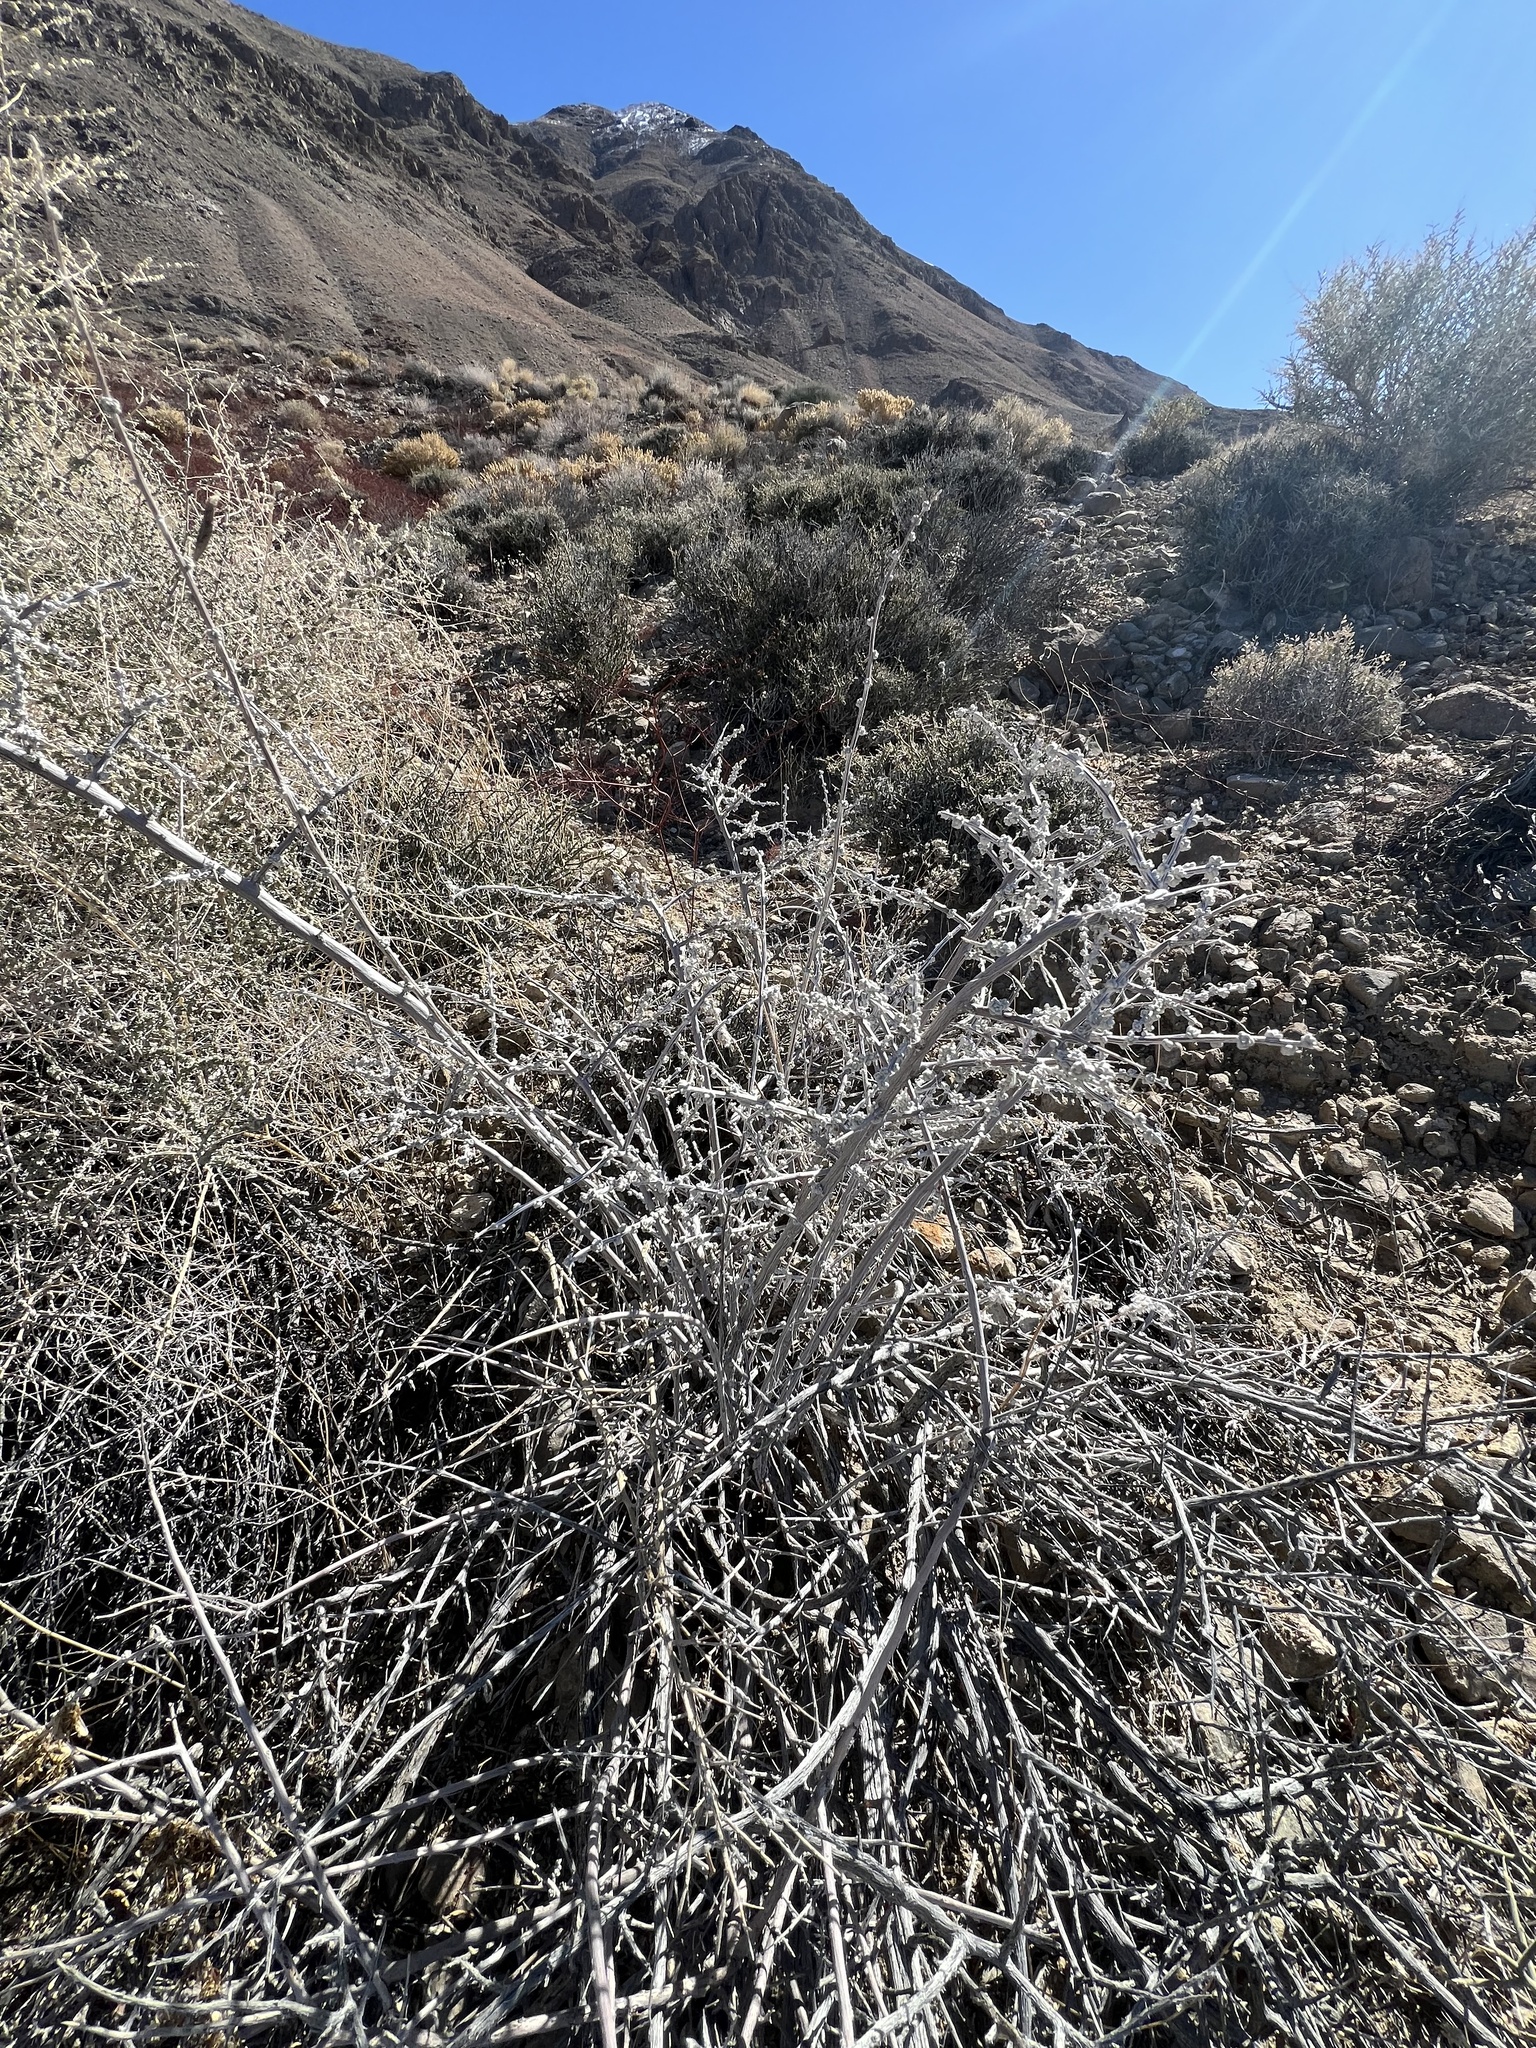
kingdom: Plantae
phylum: Tracheophyta
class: Magnoliopsida
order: Caryophyllales
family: Amaranthaceae
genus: Grayia
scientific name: Grayia spinosa
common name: Spiny hopsage
